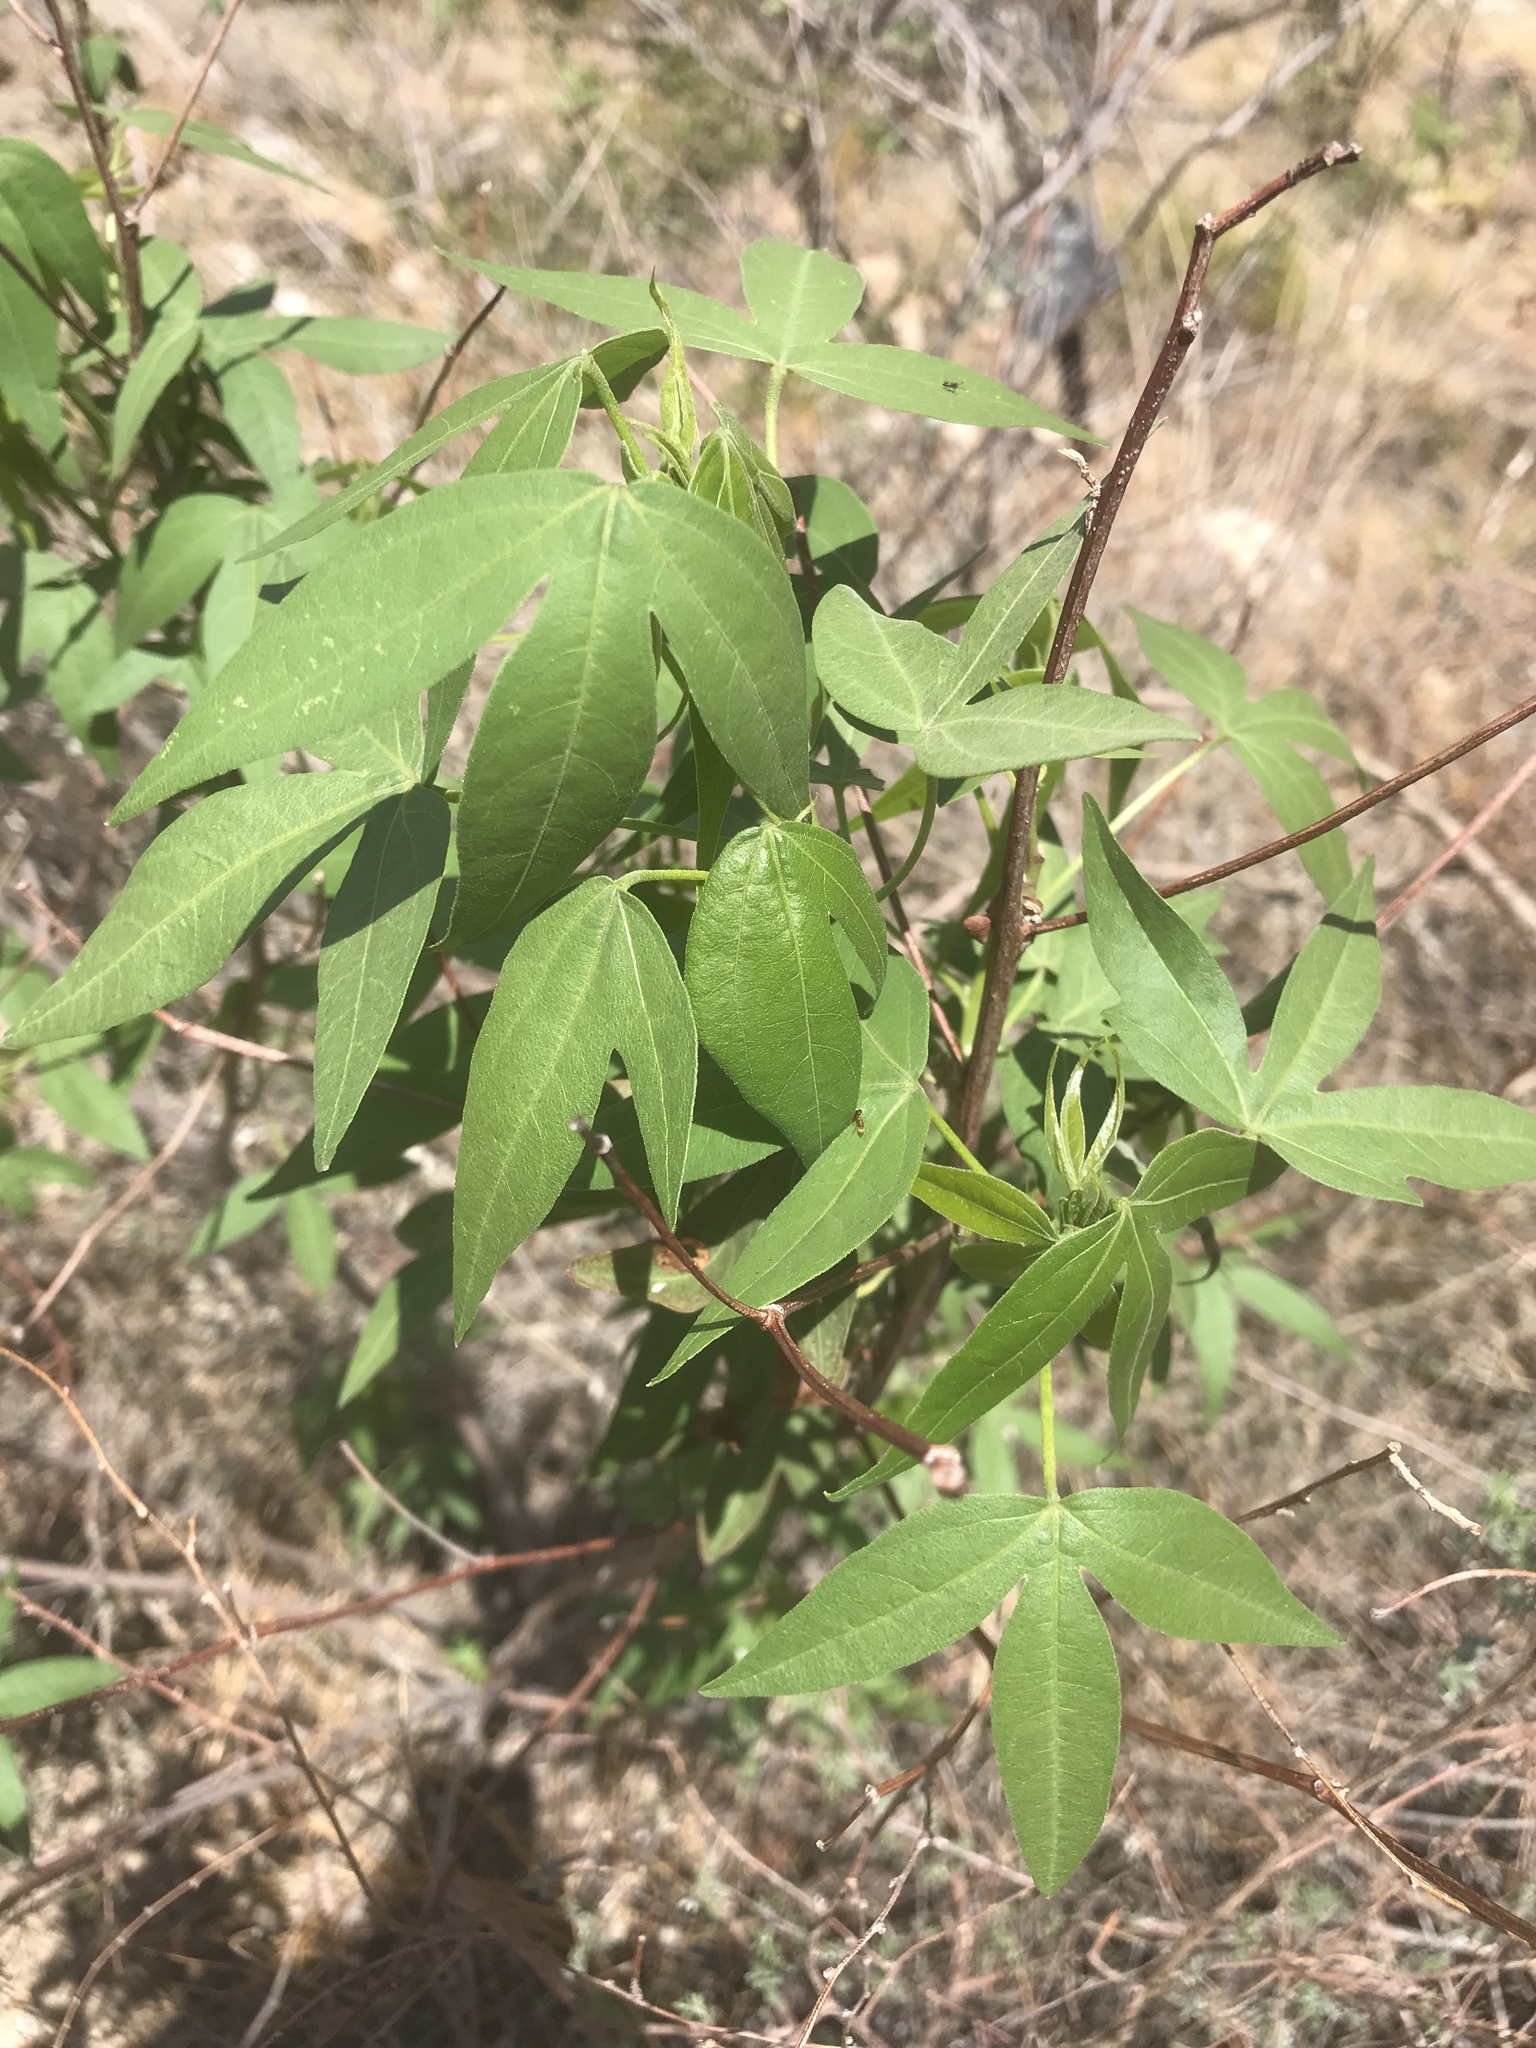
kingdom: Plantae
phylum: Tracheophyta
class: Magnoliopsida
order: Malvales
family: Malvaceae
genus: Gossypium
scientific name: Gossypium thurberi
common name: Desert cotton
